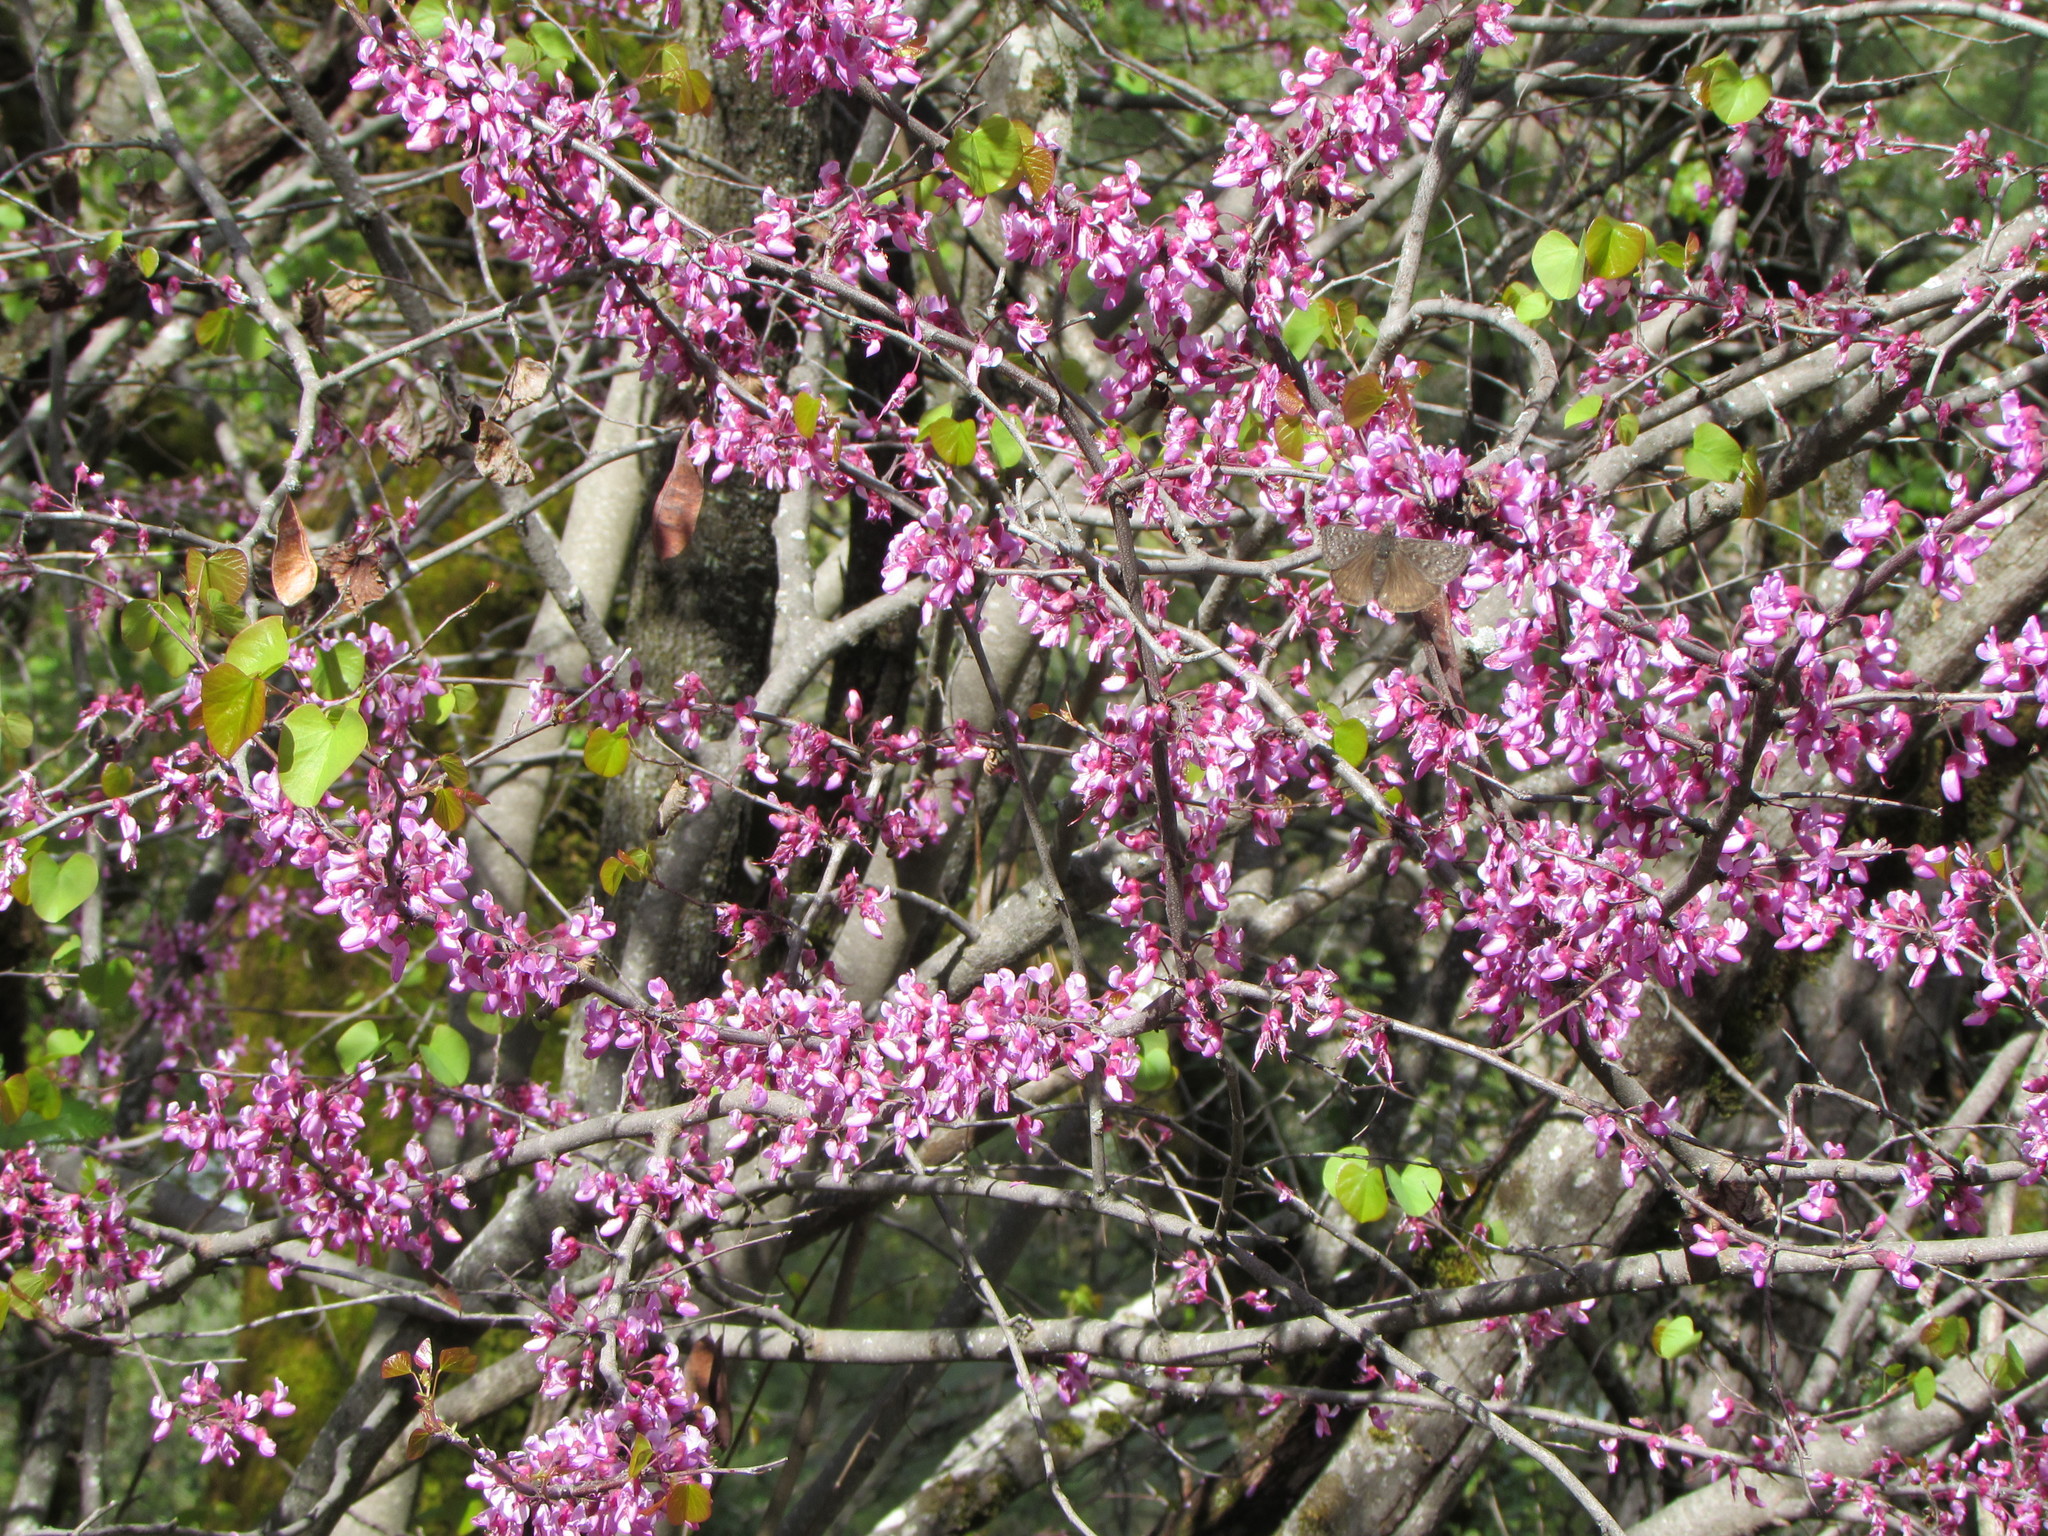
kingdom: Plantae
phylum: Tracheophyta
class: Magnoliopsida
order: Fabales
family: Fabaceae
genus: Cercis
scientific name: Cercis occidentalis
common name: California redbud
